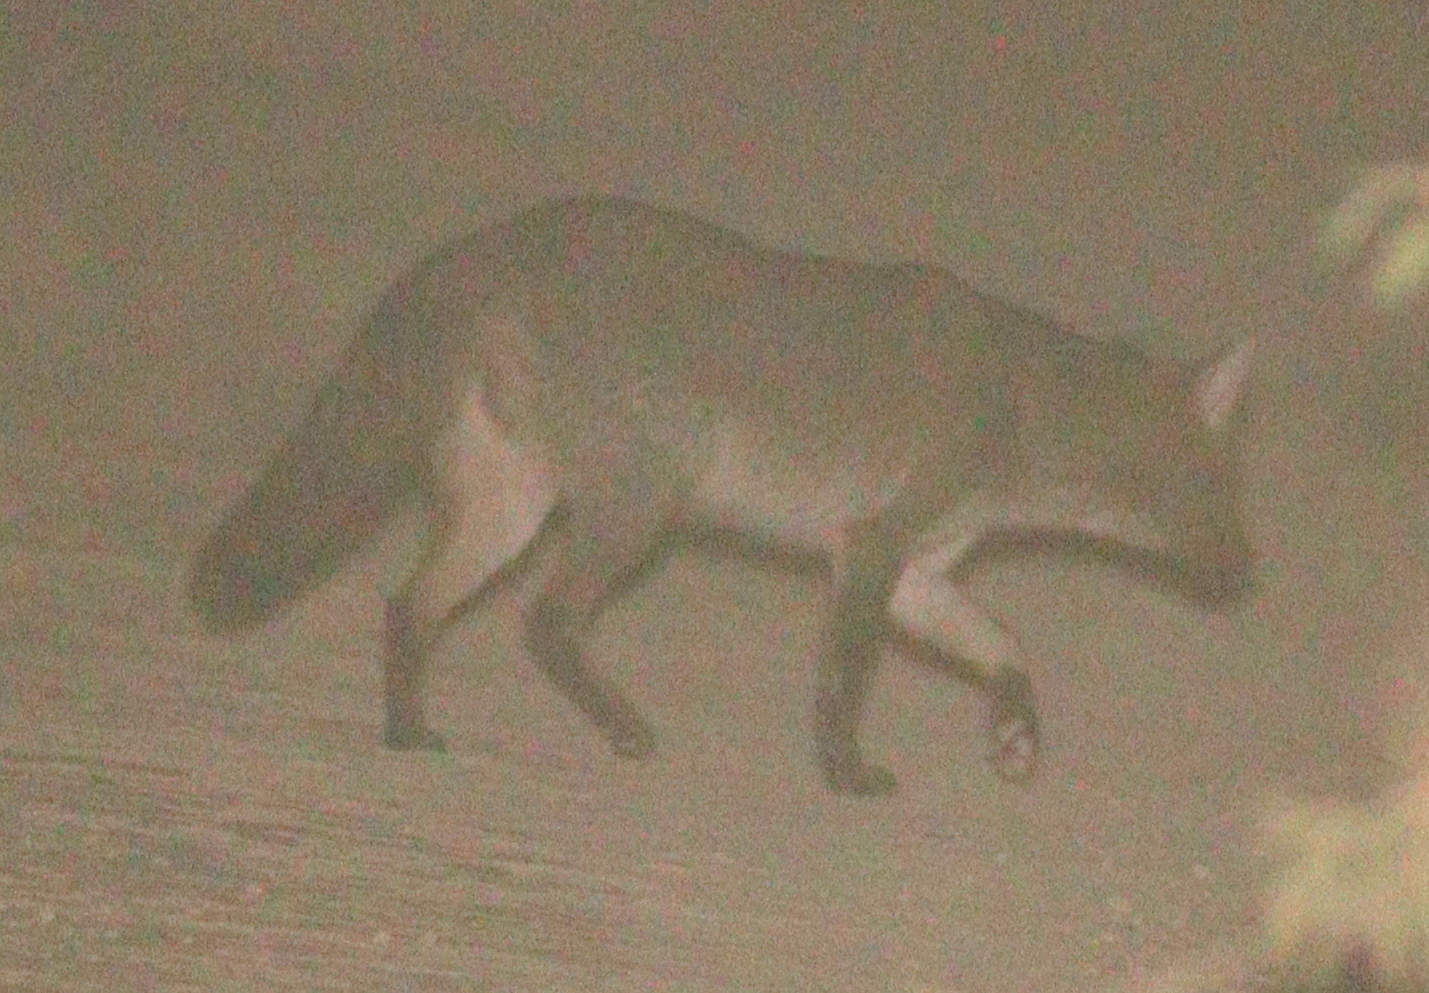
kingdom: Animalia
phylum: Chordata
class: Mammalia
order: Carnivora
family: Canidae
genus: Cerdocyon
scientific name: Cerdocyon thous
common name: Crab-eating fox
